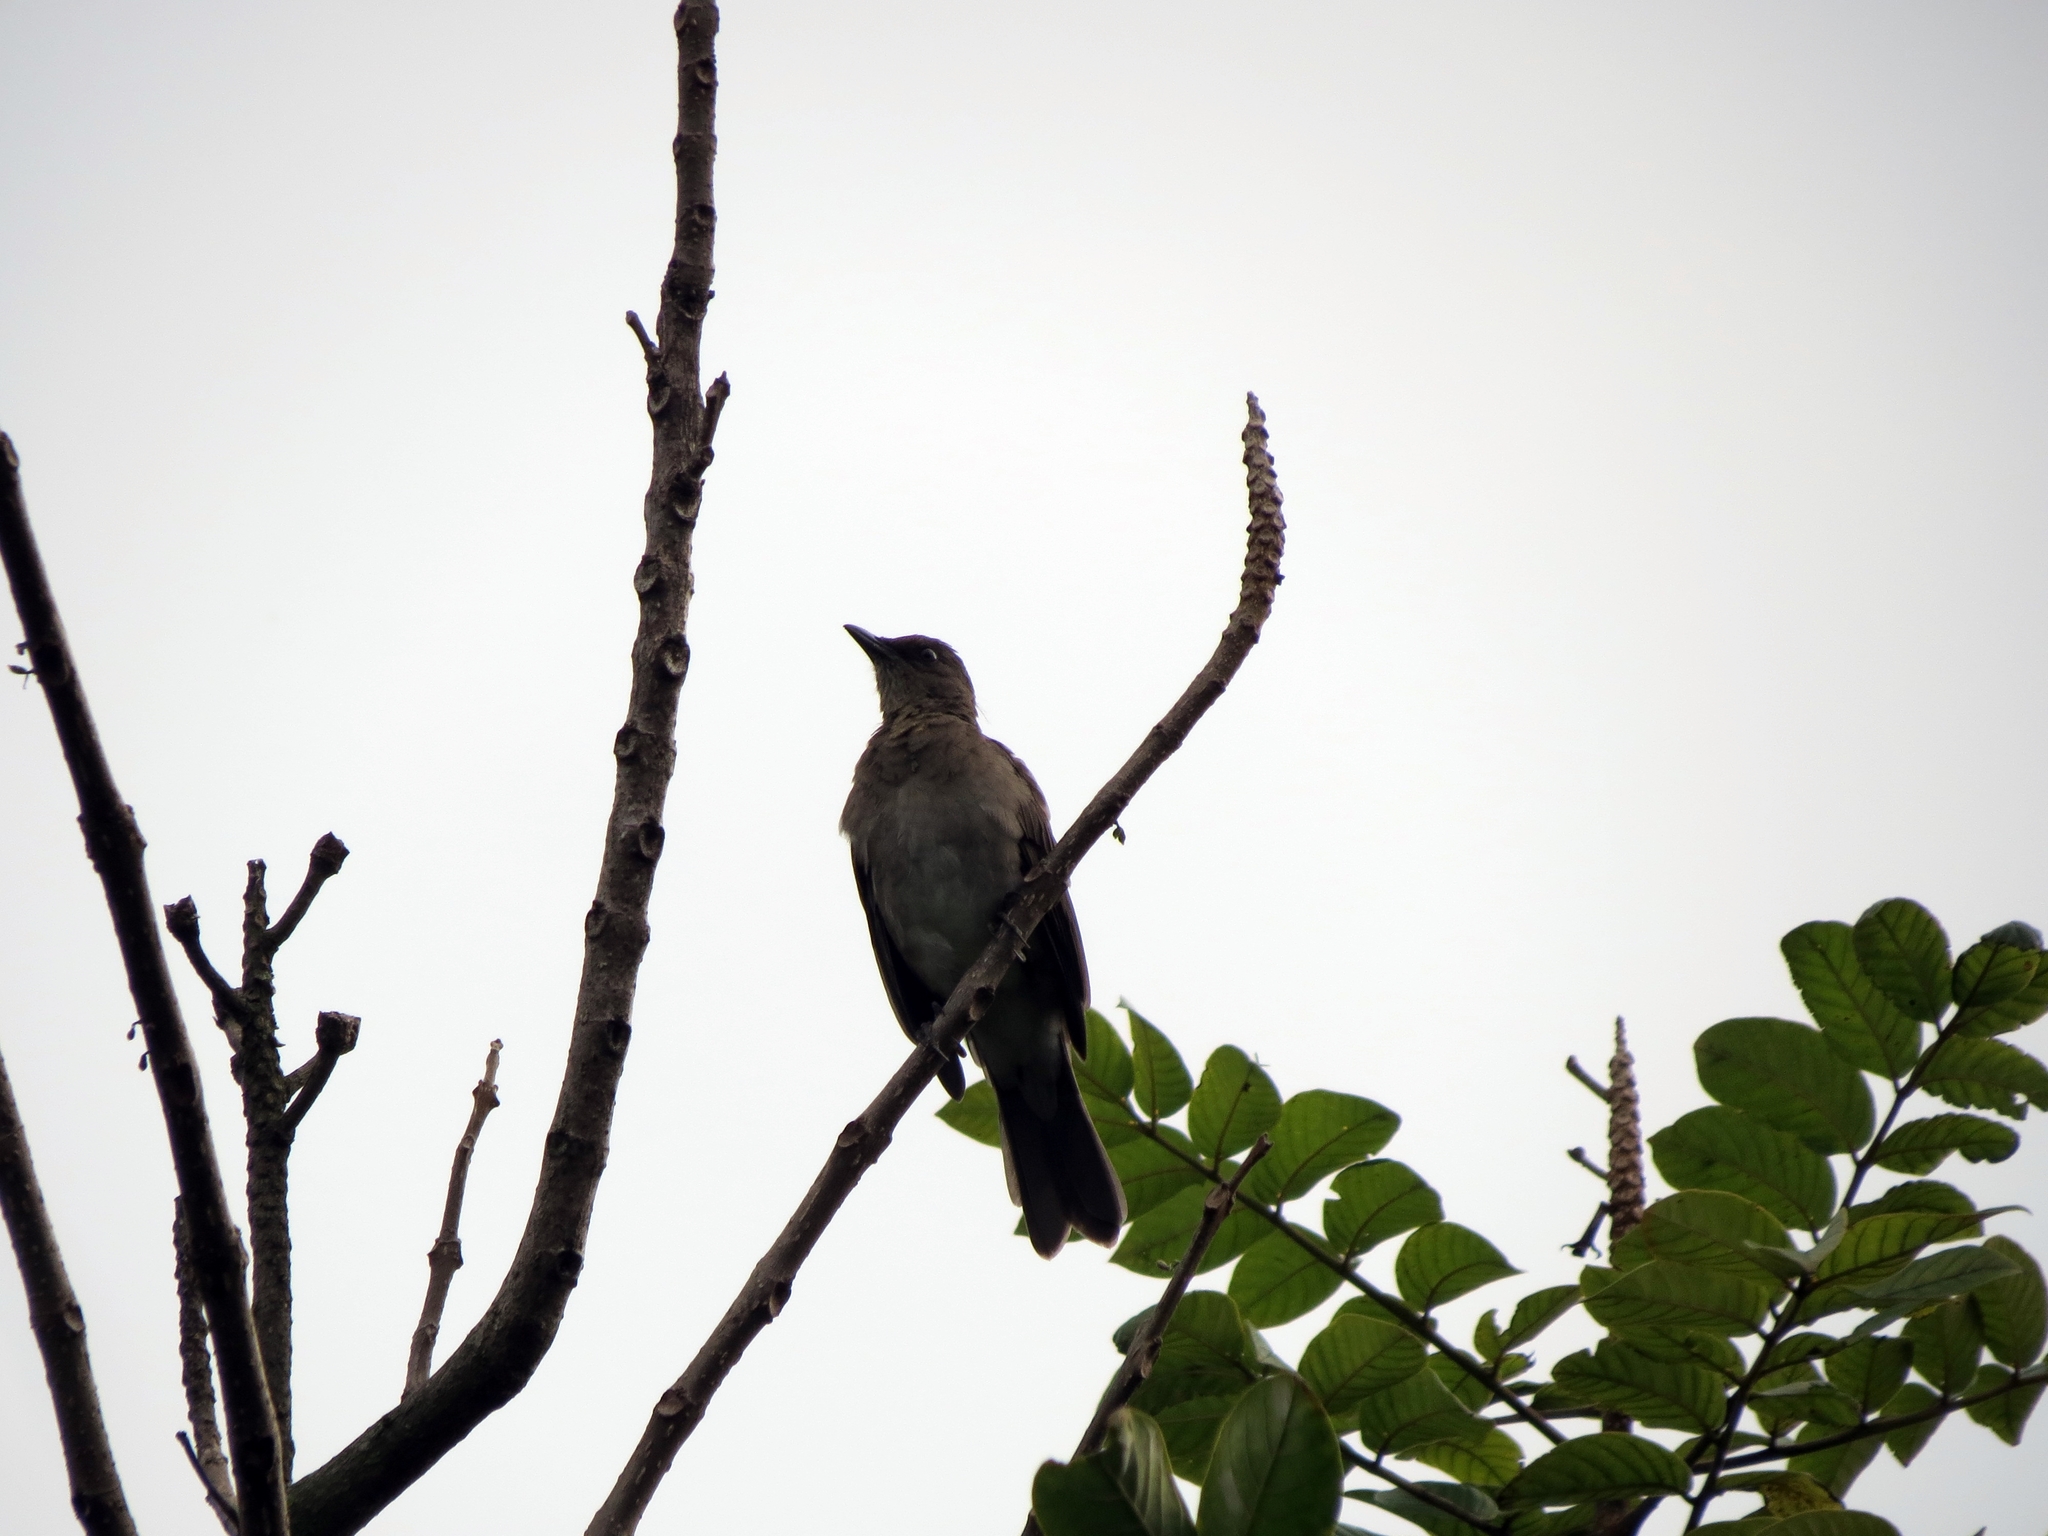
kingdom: Animalia
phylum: Chordata
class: Aves
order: Passeriformes
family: Turdidae
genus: Turdus
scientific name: Turdus ignobilis
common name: Black-billed thrush
